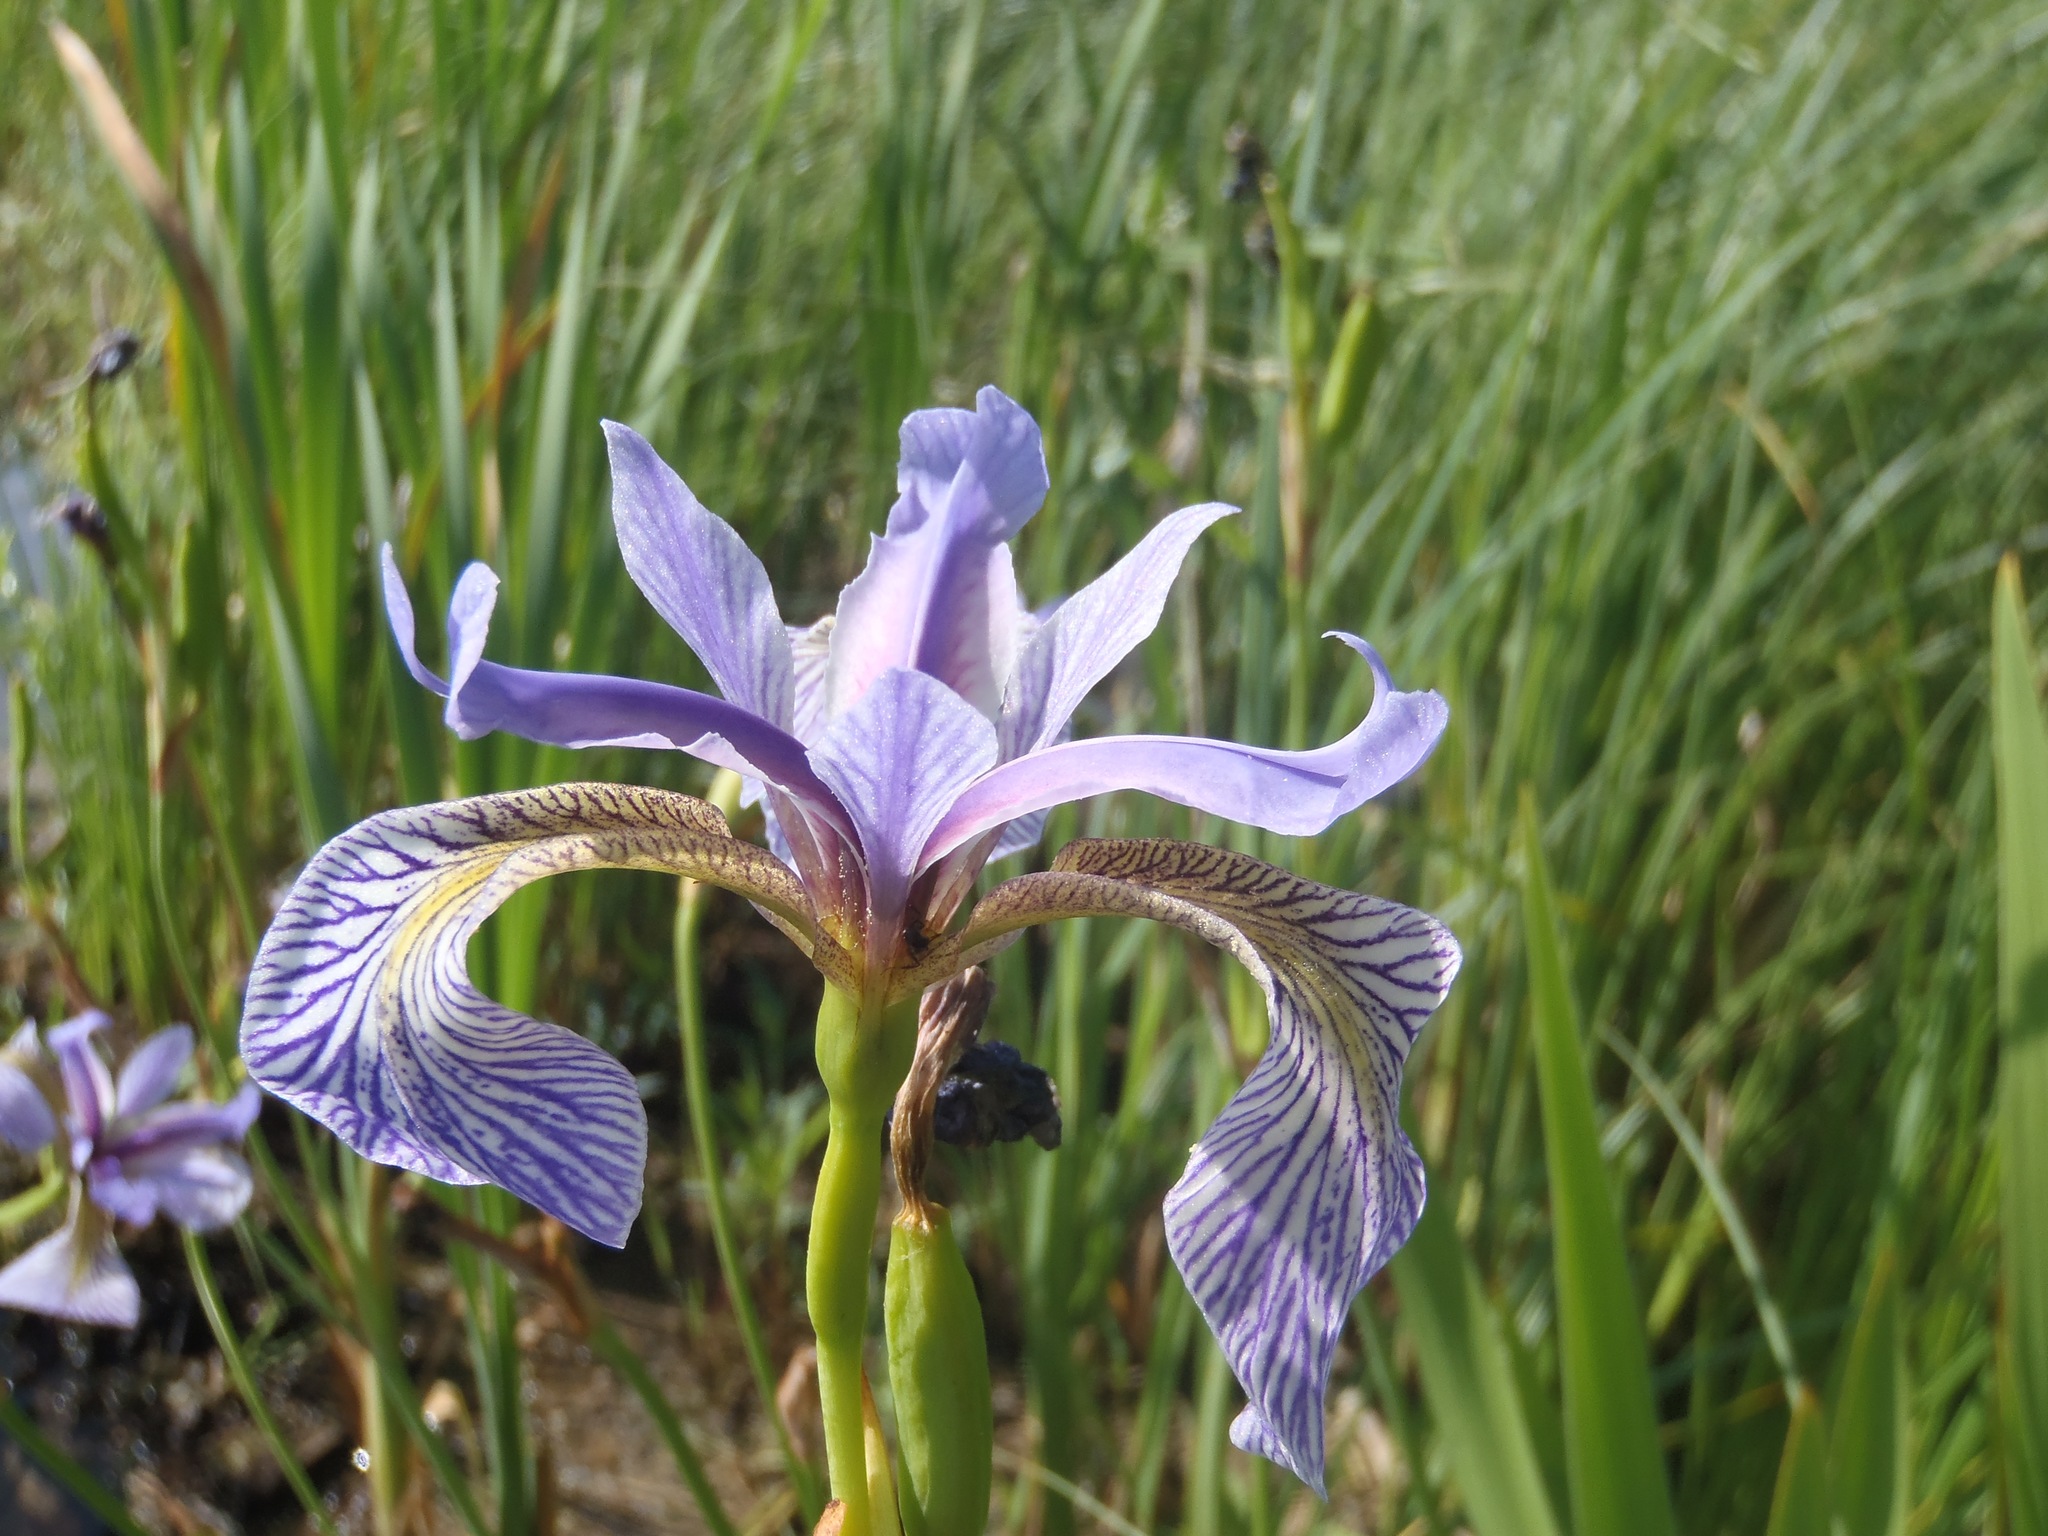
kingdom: Plantae
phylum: Tracheophyta
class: Liliopsida
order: Asparagales
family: Iridaceae
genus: Iris
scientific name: Iris versicolor
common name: Purple iris
